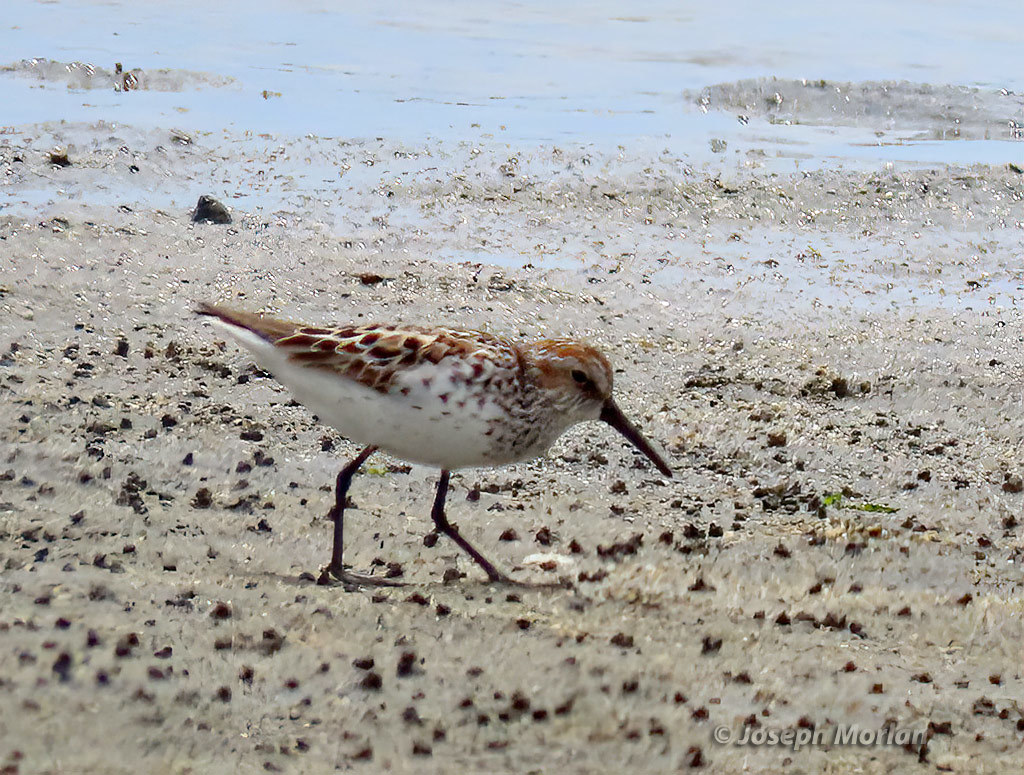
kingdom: Animalia
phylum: Chordata
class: Aves
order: Charadriiformes
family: Scolopacidae
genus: Calidris
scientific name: Calidris mauri
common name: Western sandpiper
